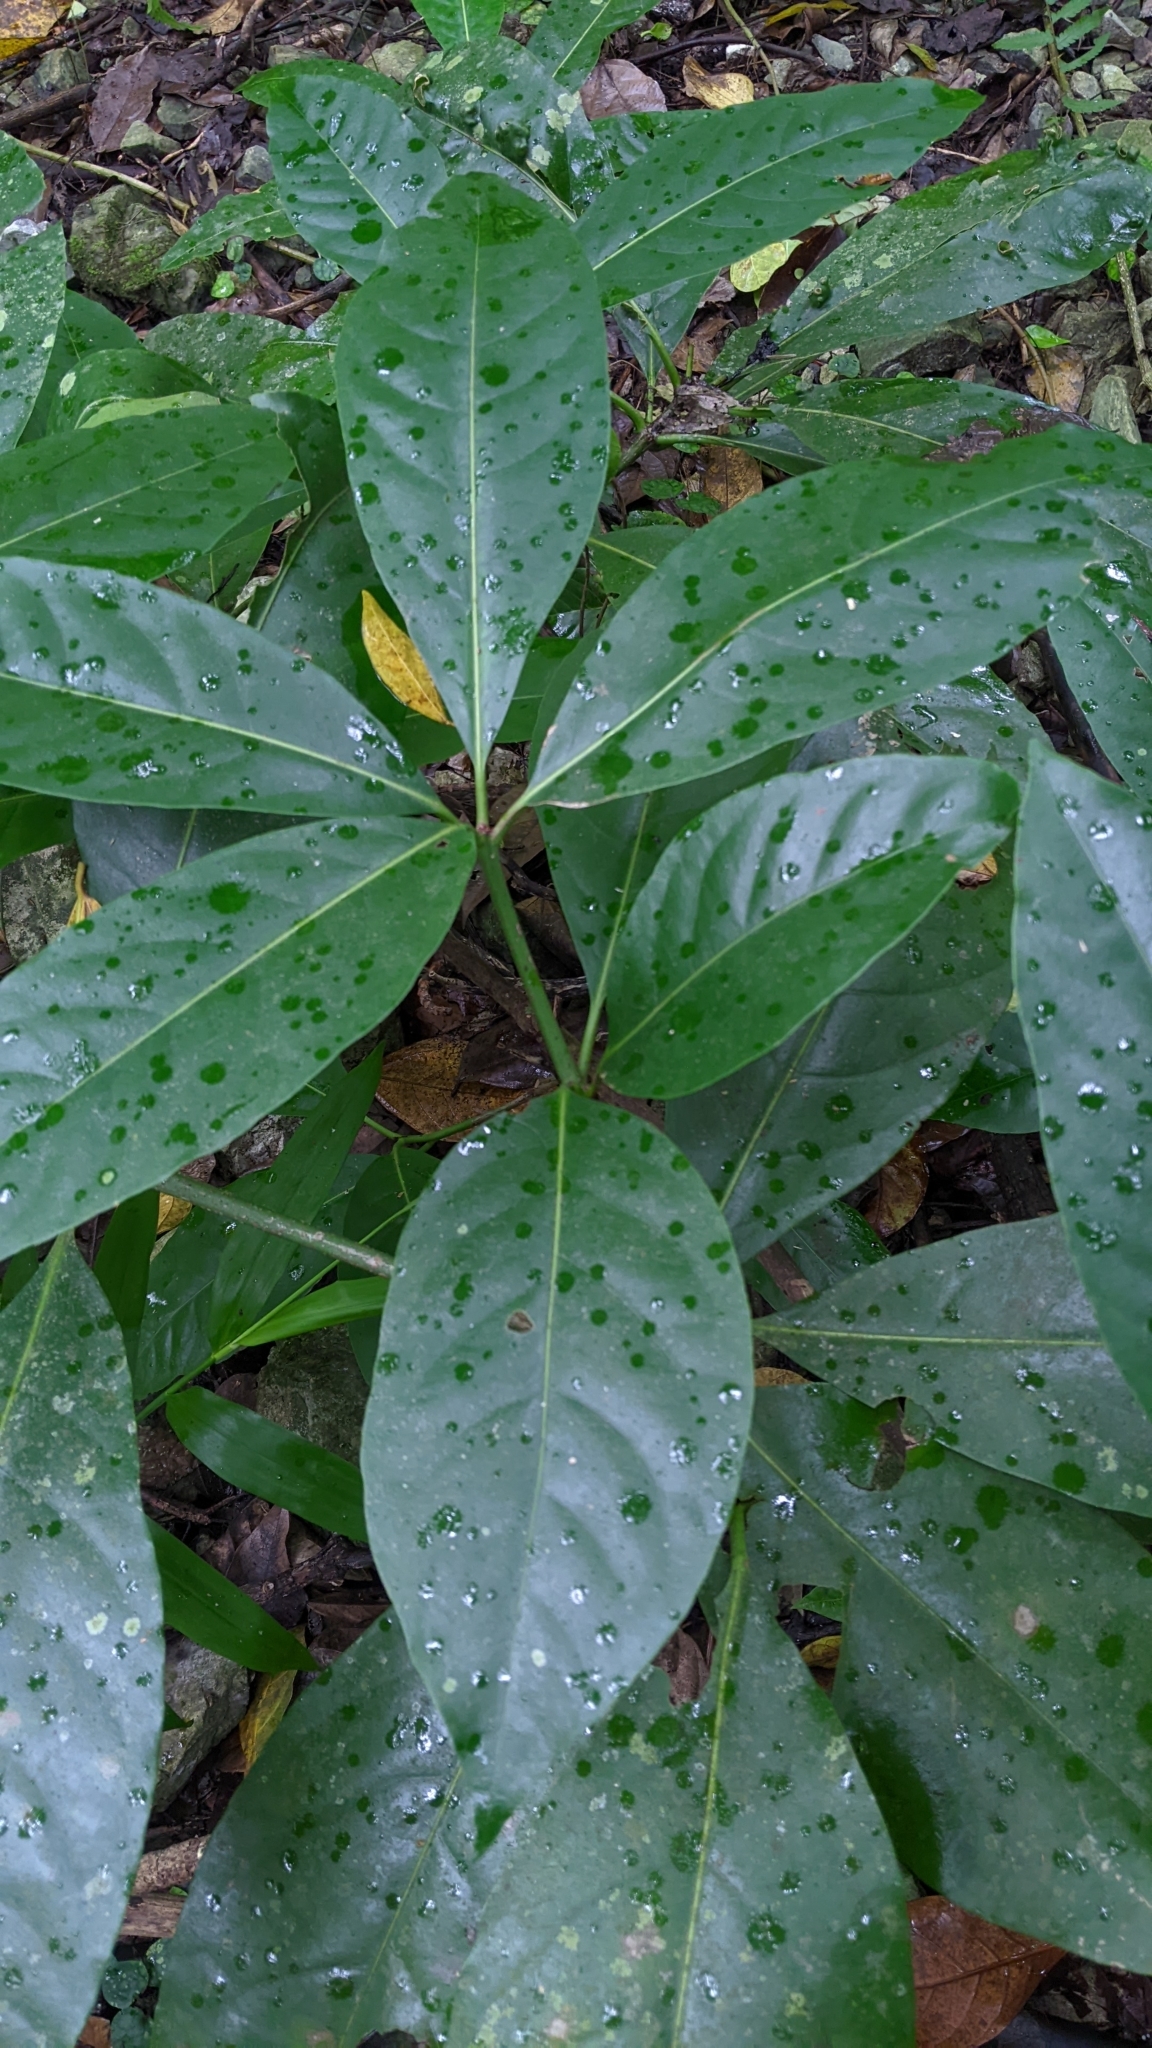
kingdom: Plantae
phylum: Tracheophyta
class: Magnoliopsida
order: Caryophyllales
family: Nyctaginaceae
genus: Ceodes
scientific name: Ceodes umbellifera
